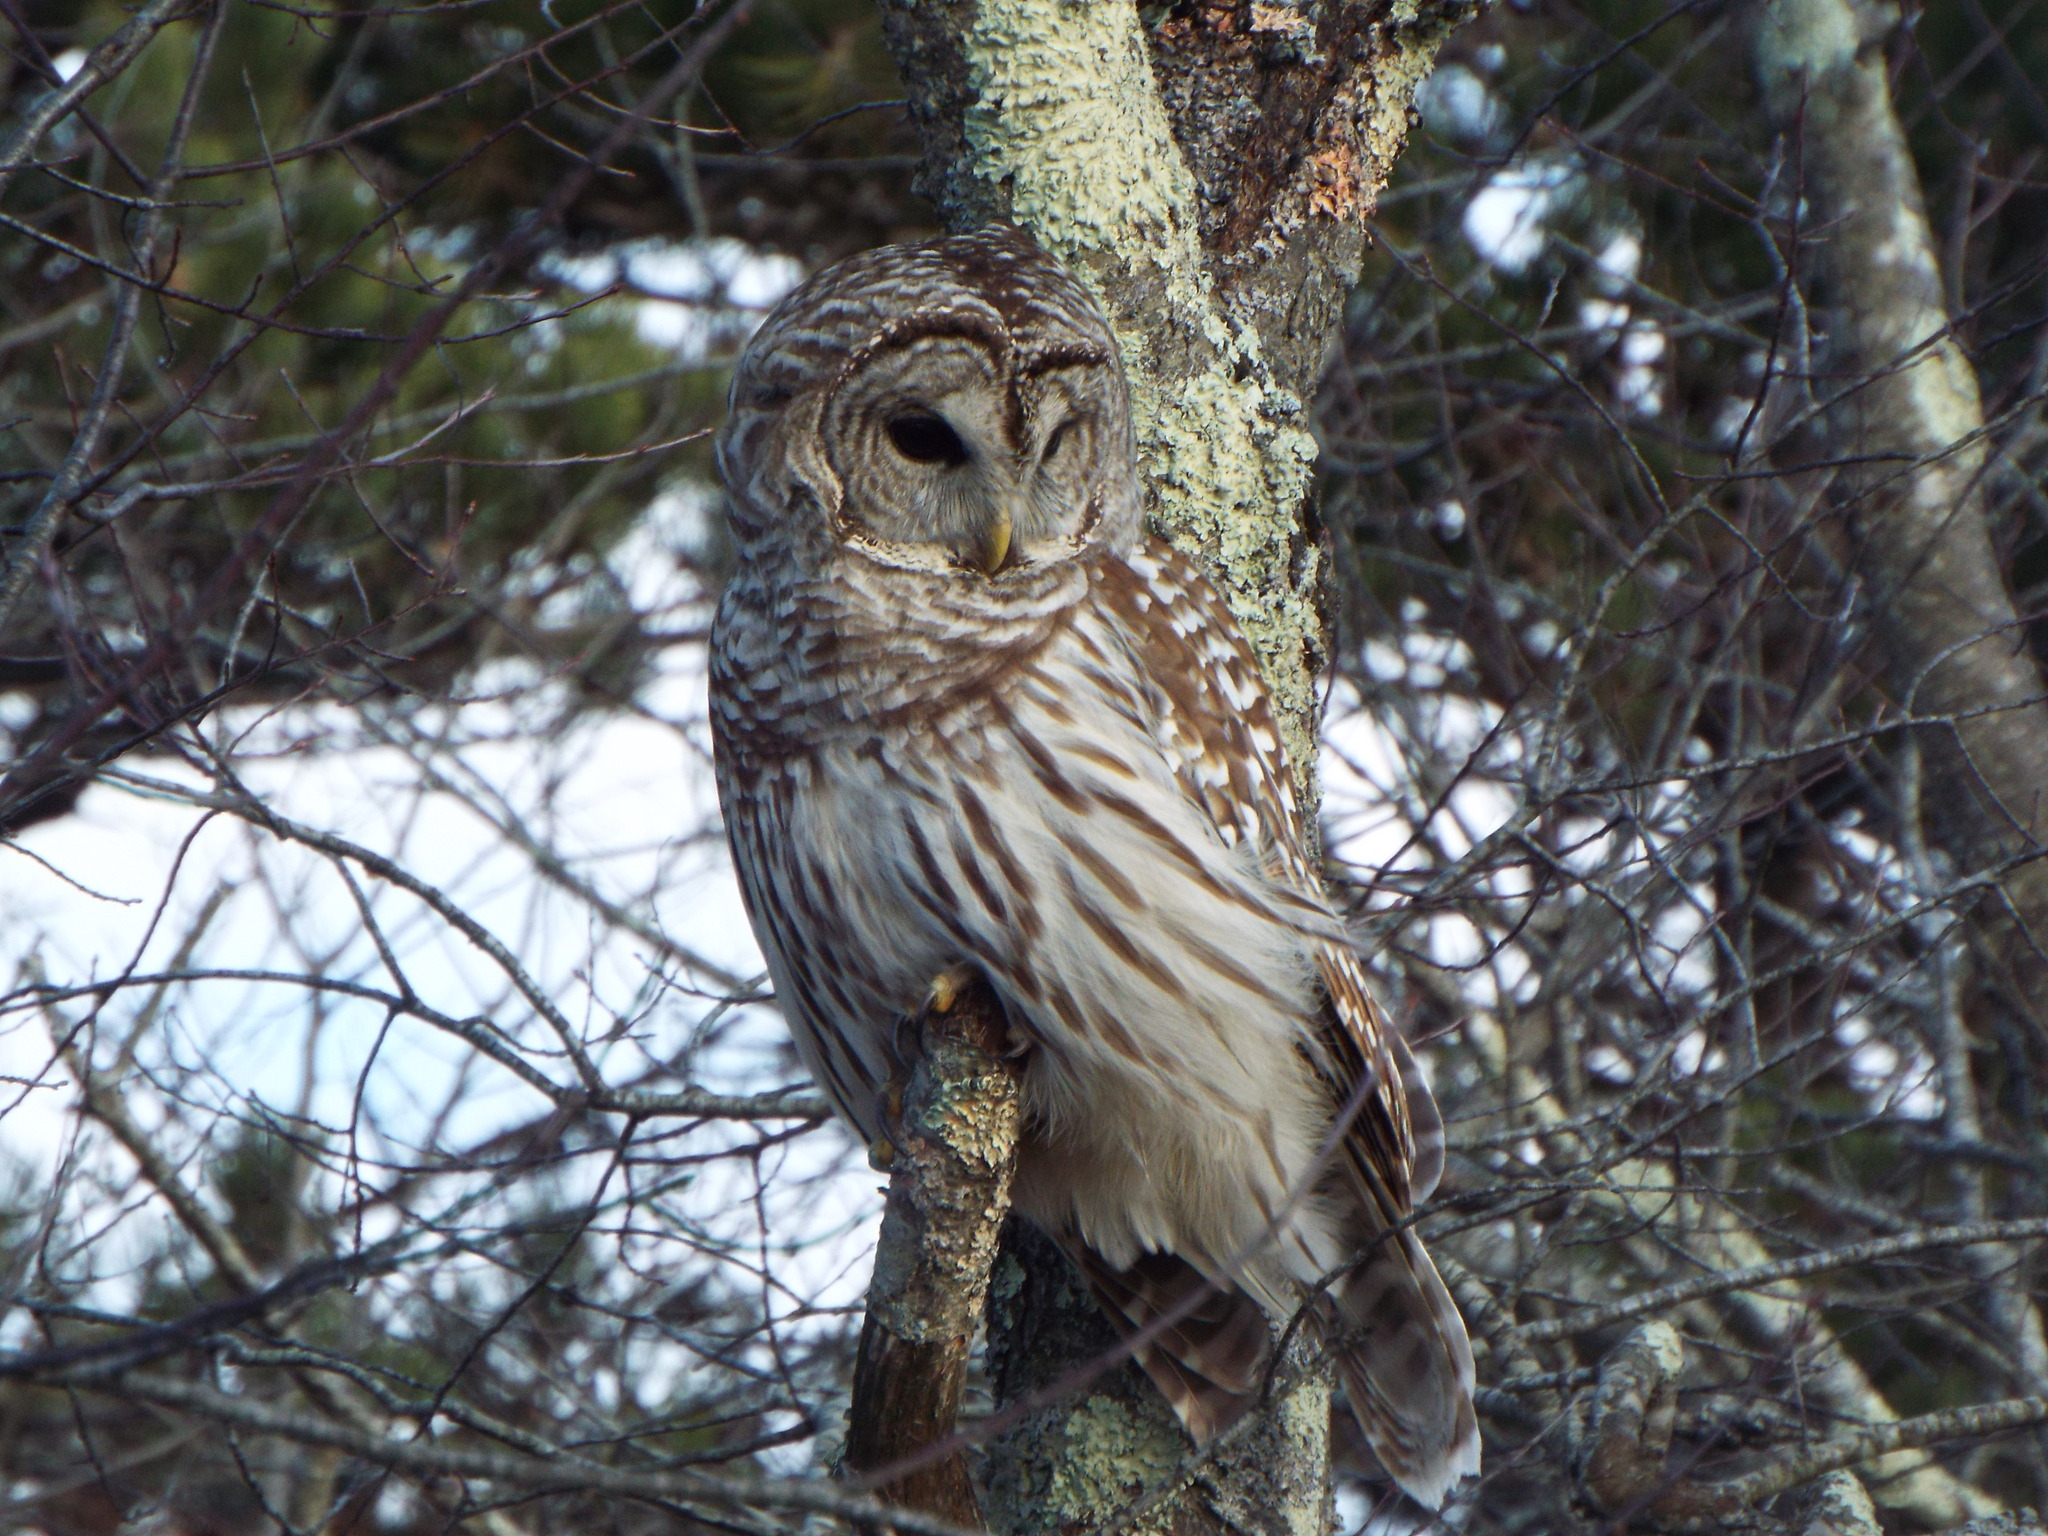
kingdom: Animalia
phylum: Chordata
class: Aves
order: Strigiformes
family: Strigidae
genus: Strix
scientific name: Strix varia
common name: Barred owl
